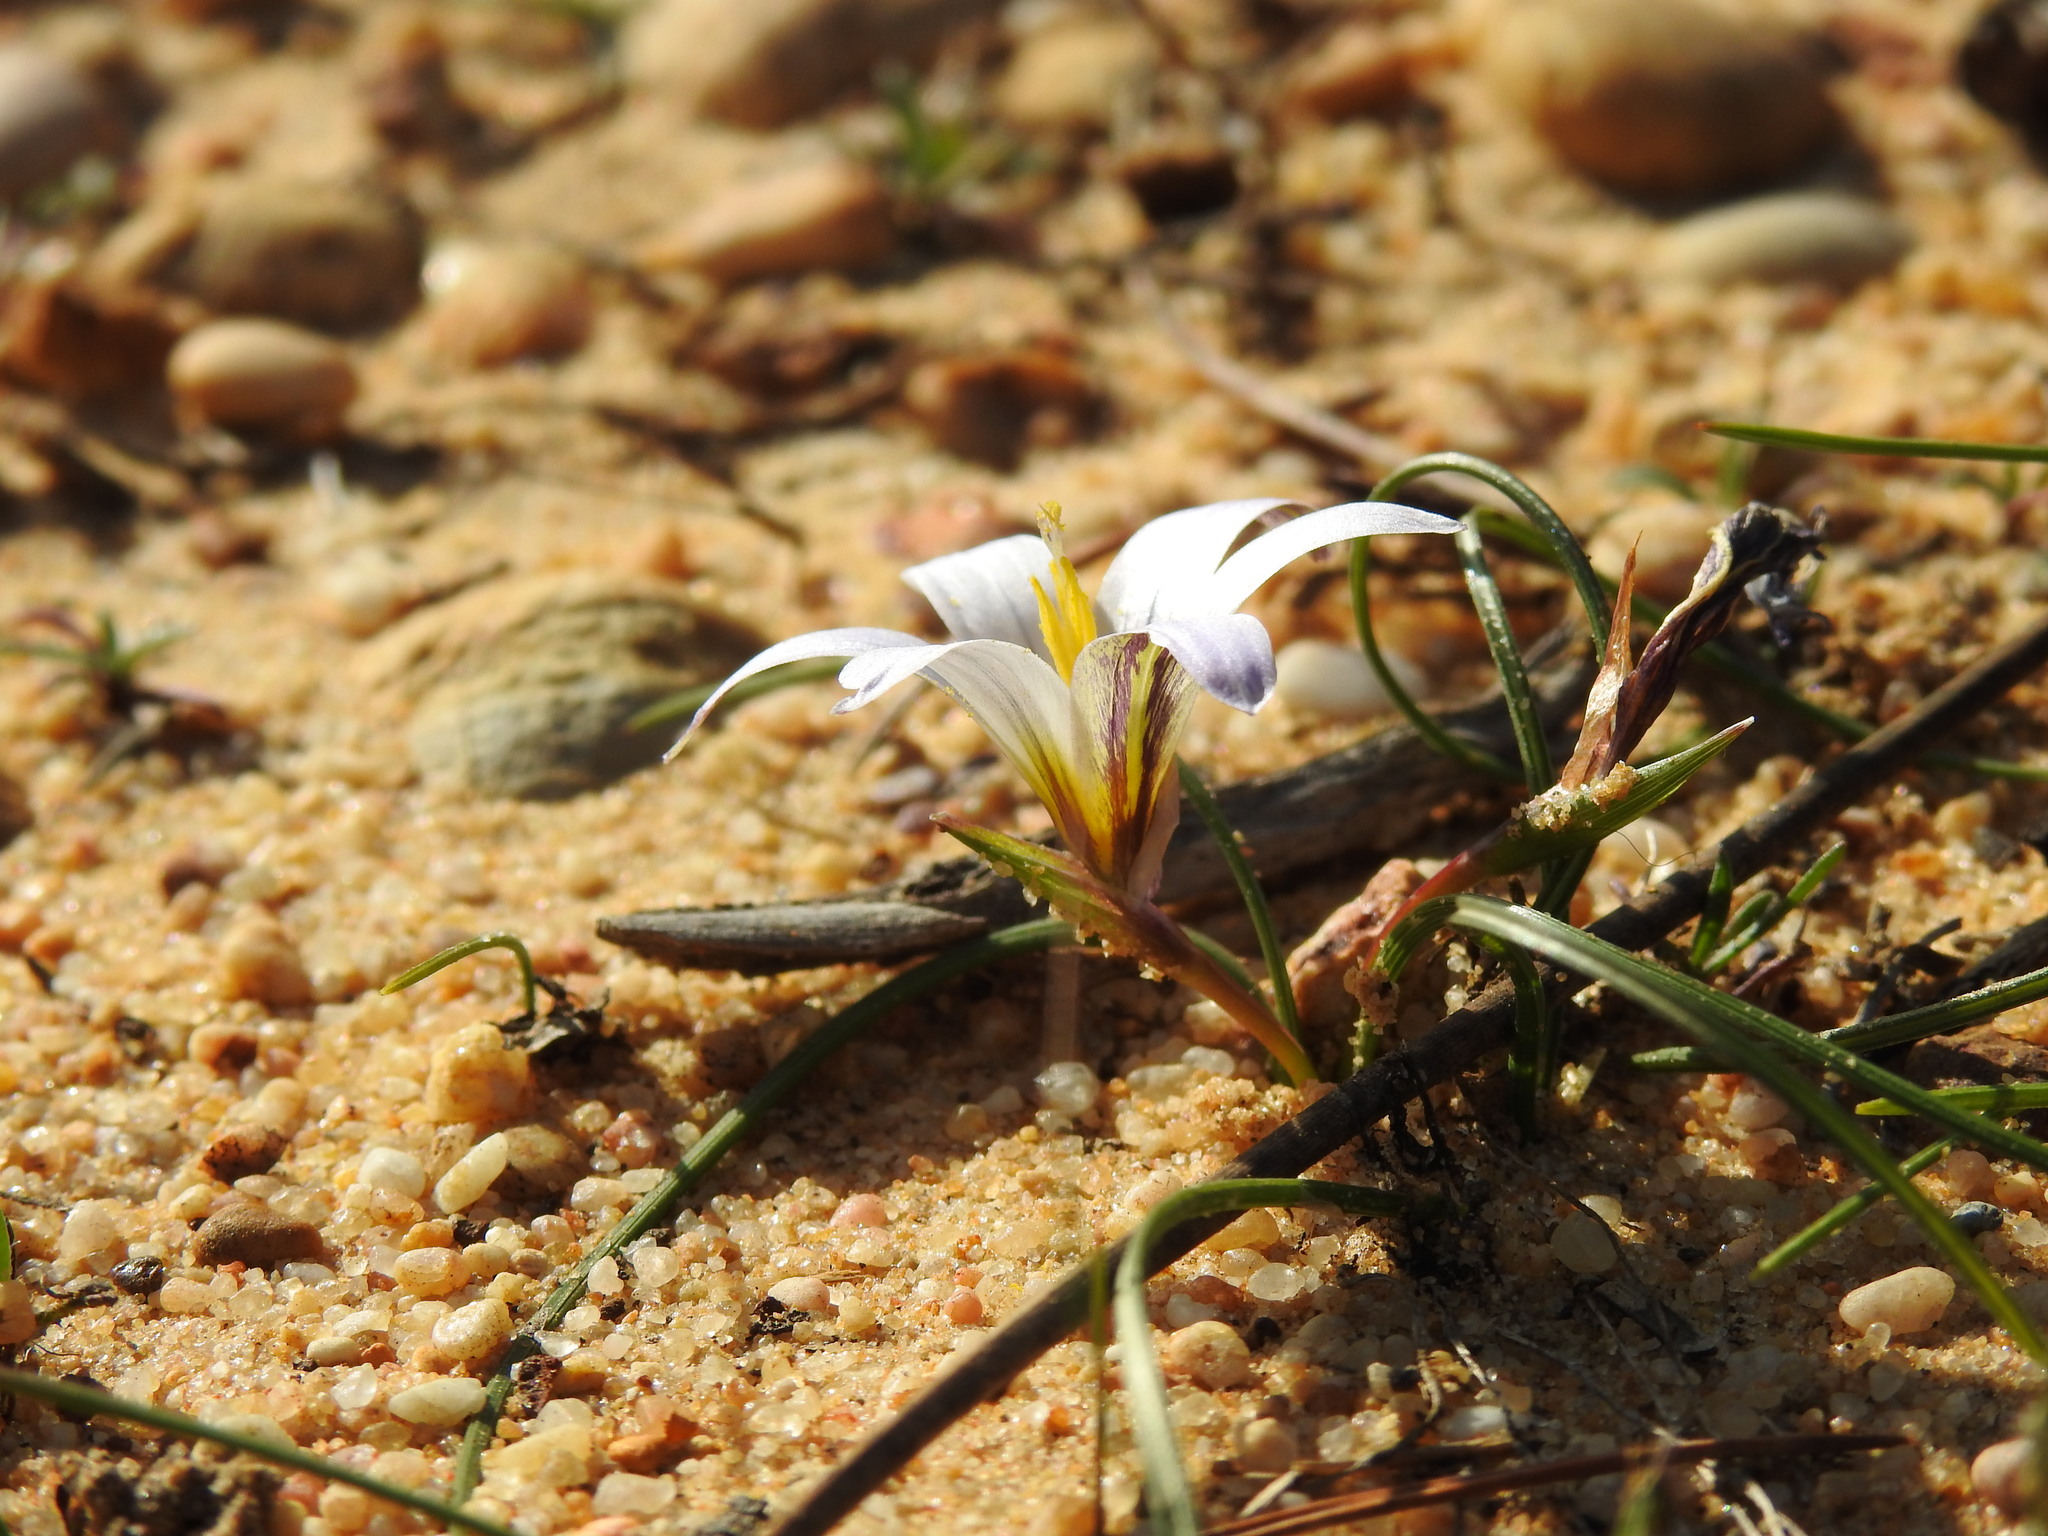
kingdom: Plantae
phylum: Tracheophyta
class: Liliopsida
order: Asparagales
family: Iridaceae
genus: Romulea
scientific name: Romulea bulbocodium
